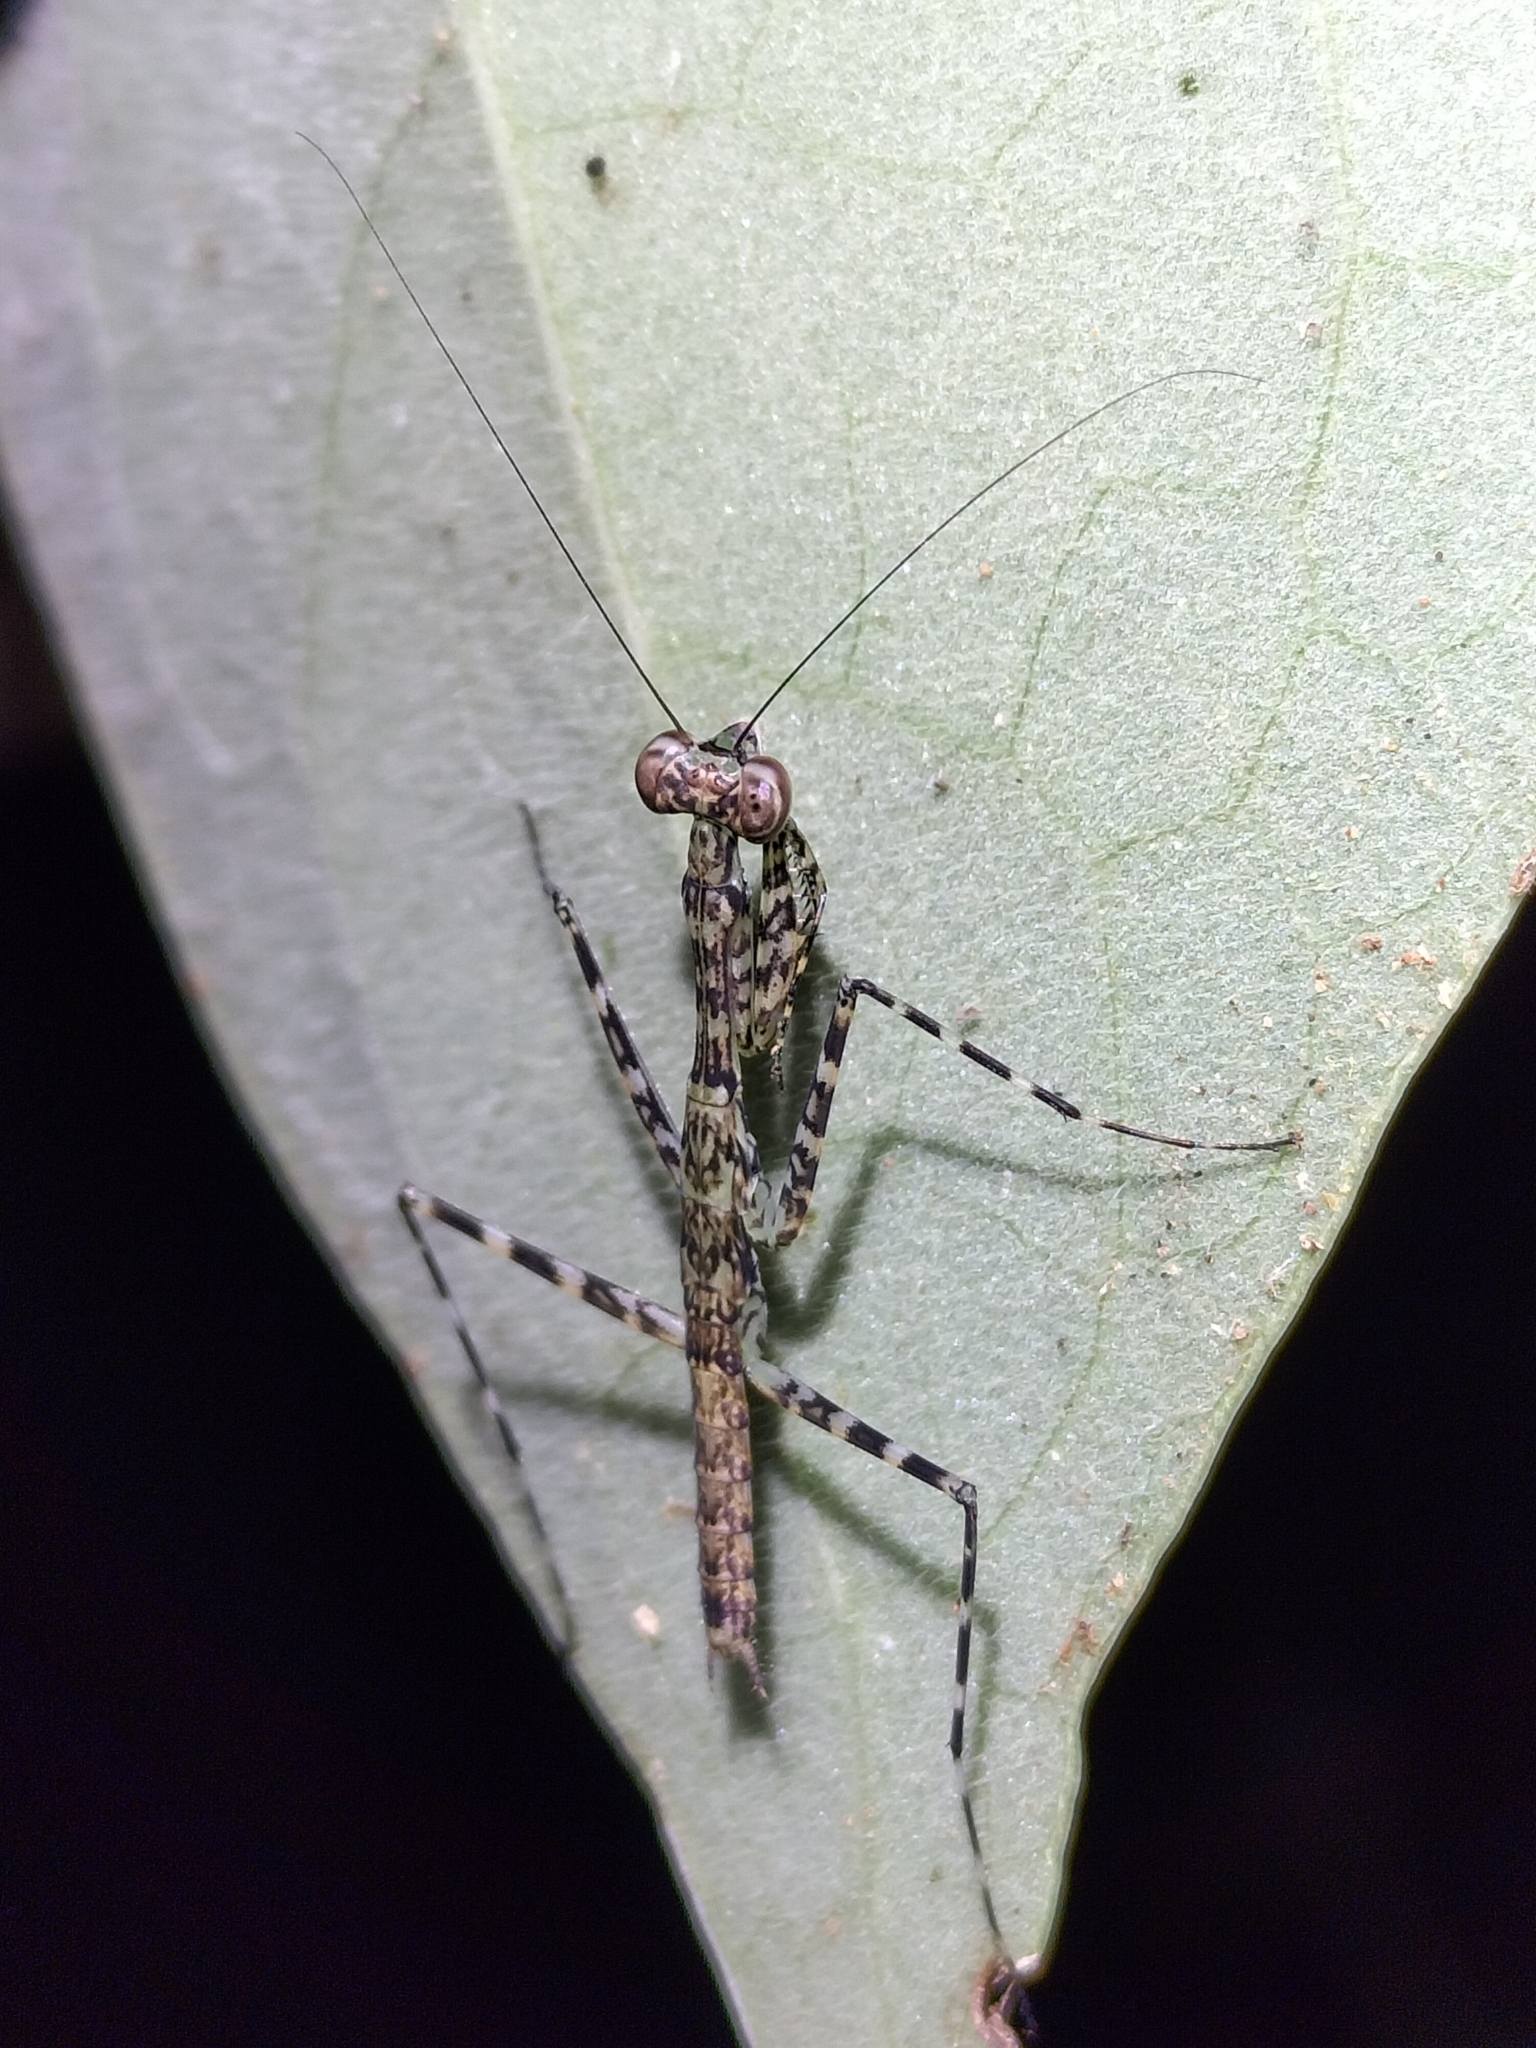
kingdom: Animalia
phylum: Arthropoda
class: Insecta
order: Mantodea
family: Nanomantidae
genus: Ciulfina
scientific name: Ciulfina rentzi
